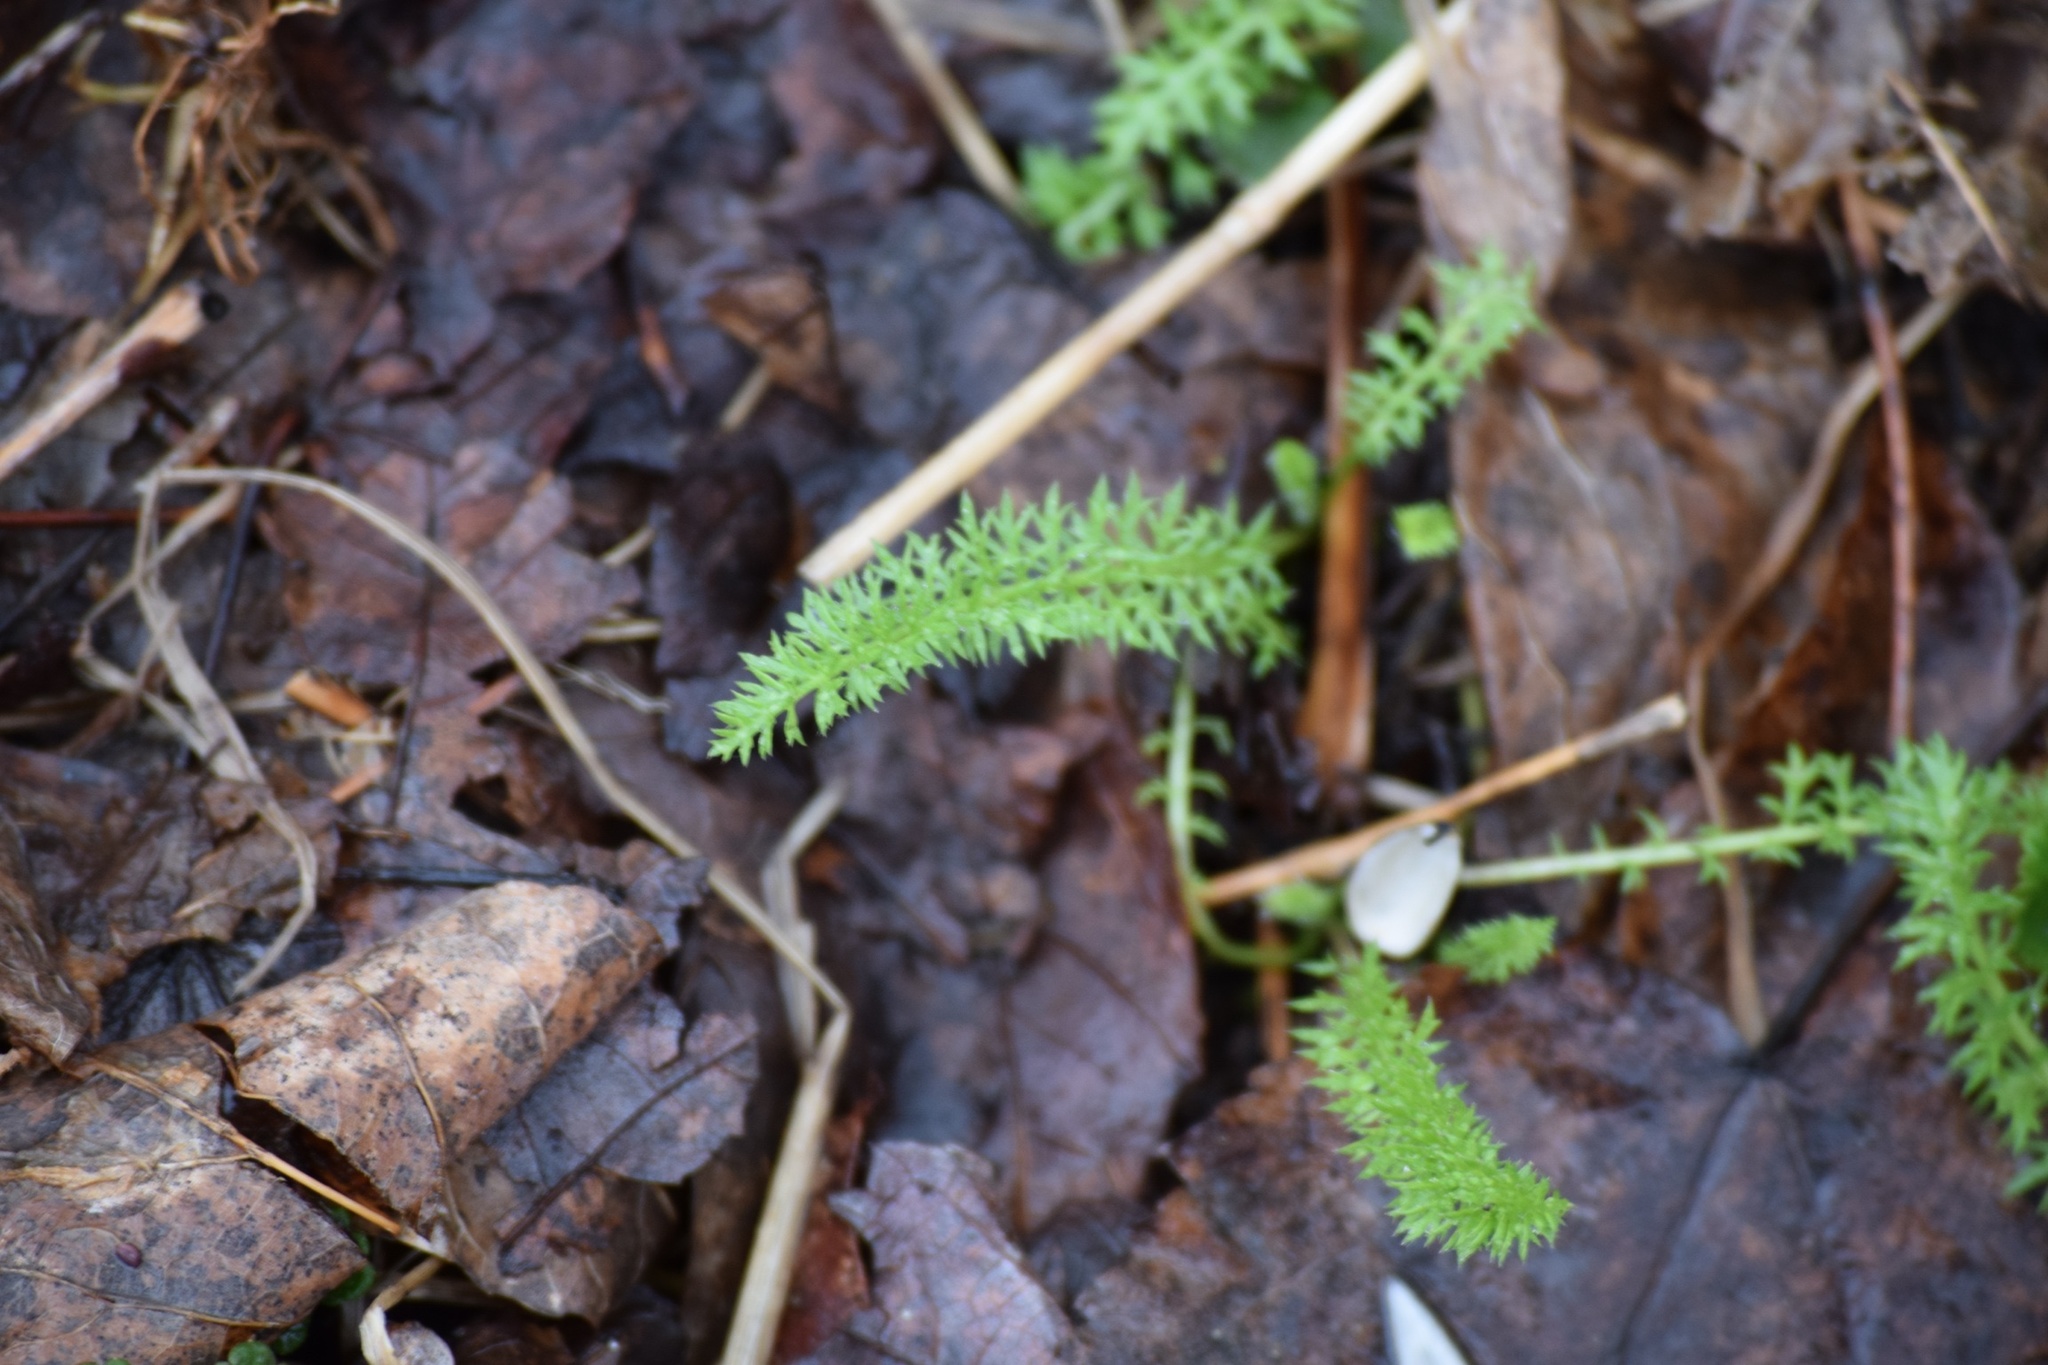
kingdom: Plantae
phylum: Tracheophyta
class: Magnoliopsida
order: Asterales
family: Asteraceae
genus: Achillea
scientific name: Achillea millefolium
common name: Yarrow
